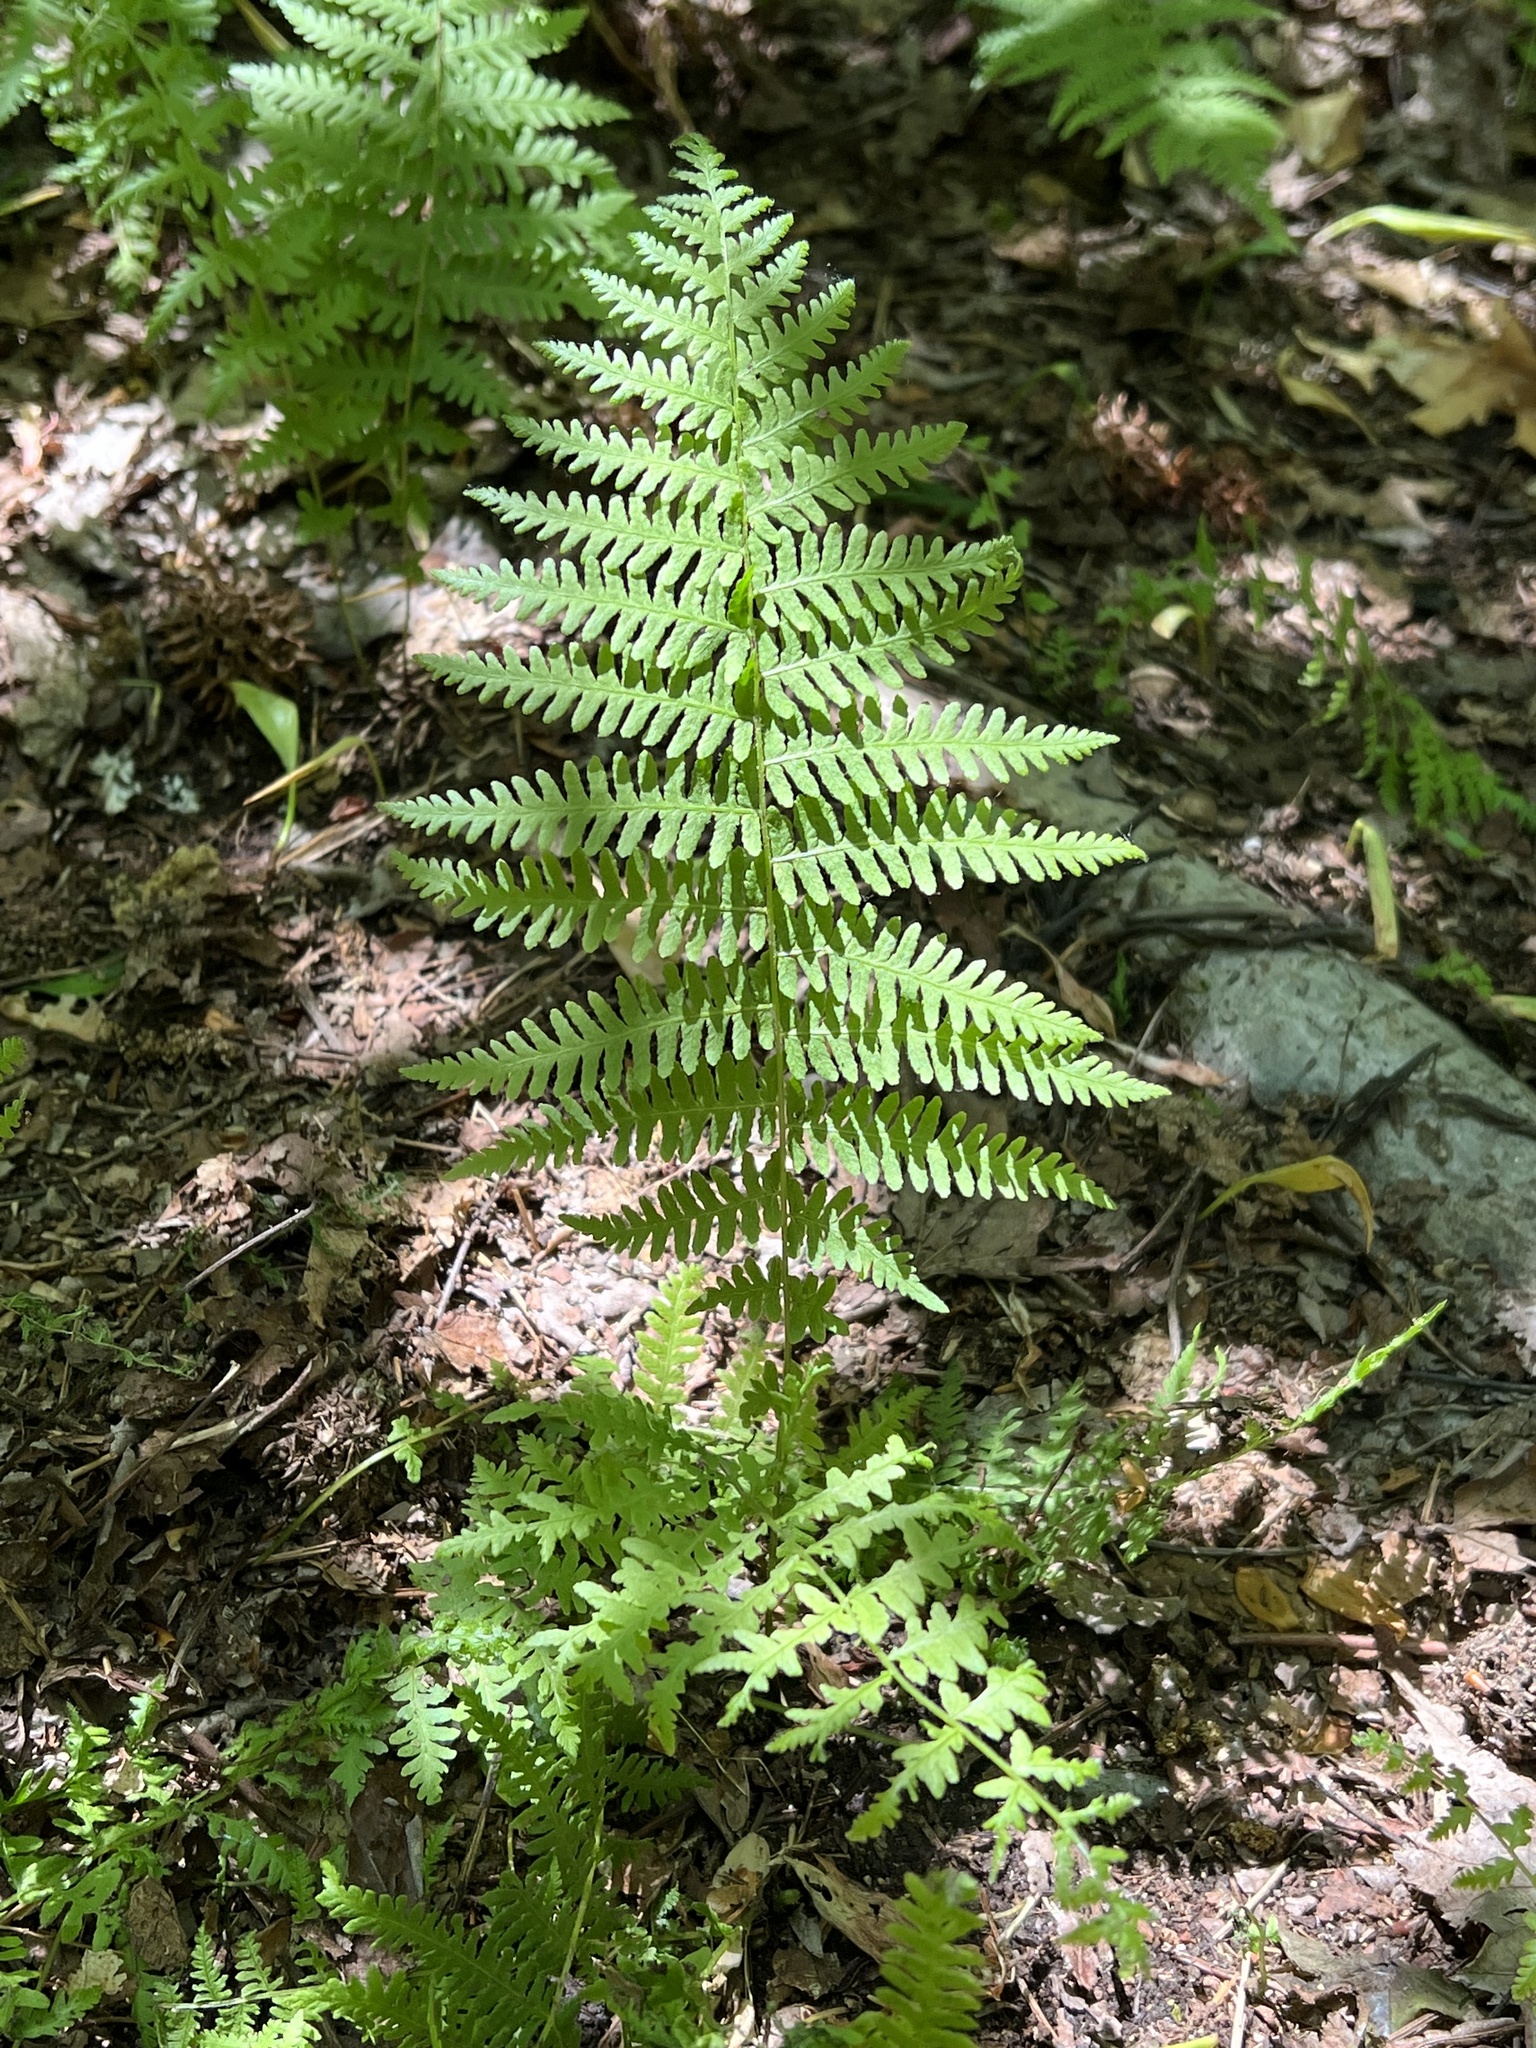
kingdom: Plantae
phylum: Tracheophyta
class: Polypodiopsida
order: Polypodiales
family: Thelypteridaceae
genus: Amauropelta
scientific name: Amauropelta noveboracensis
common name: New york fern
